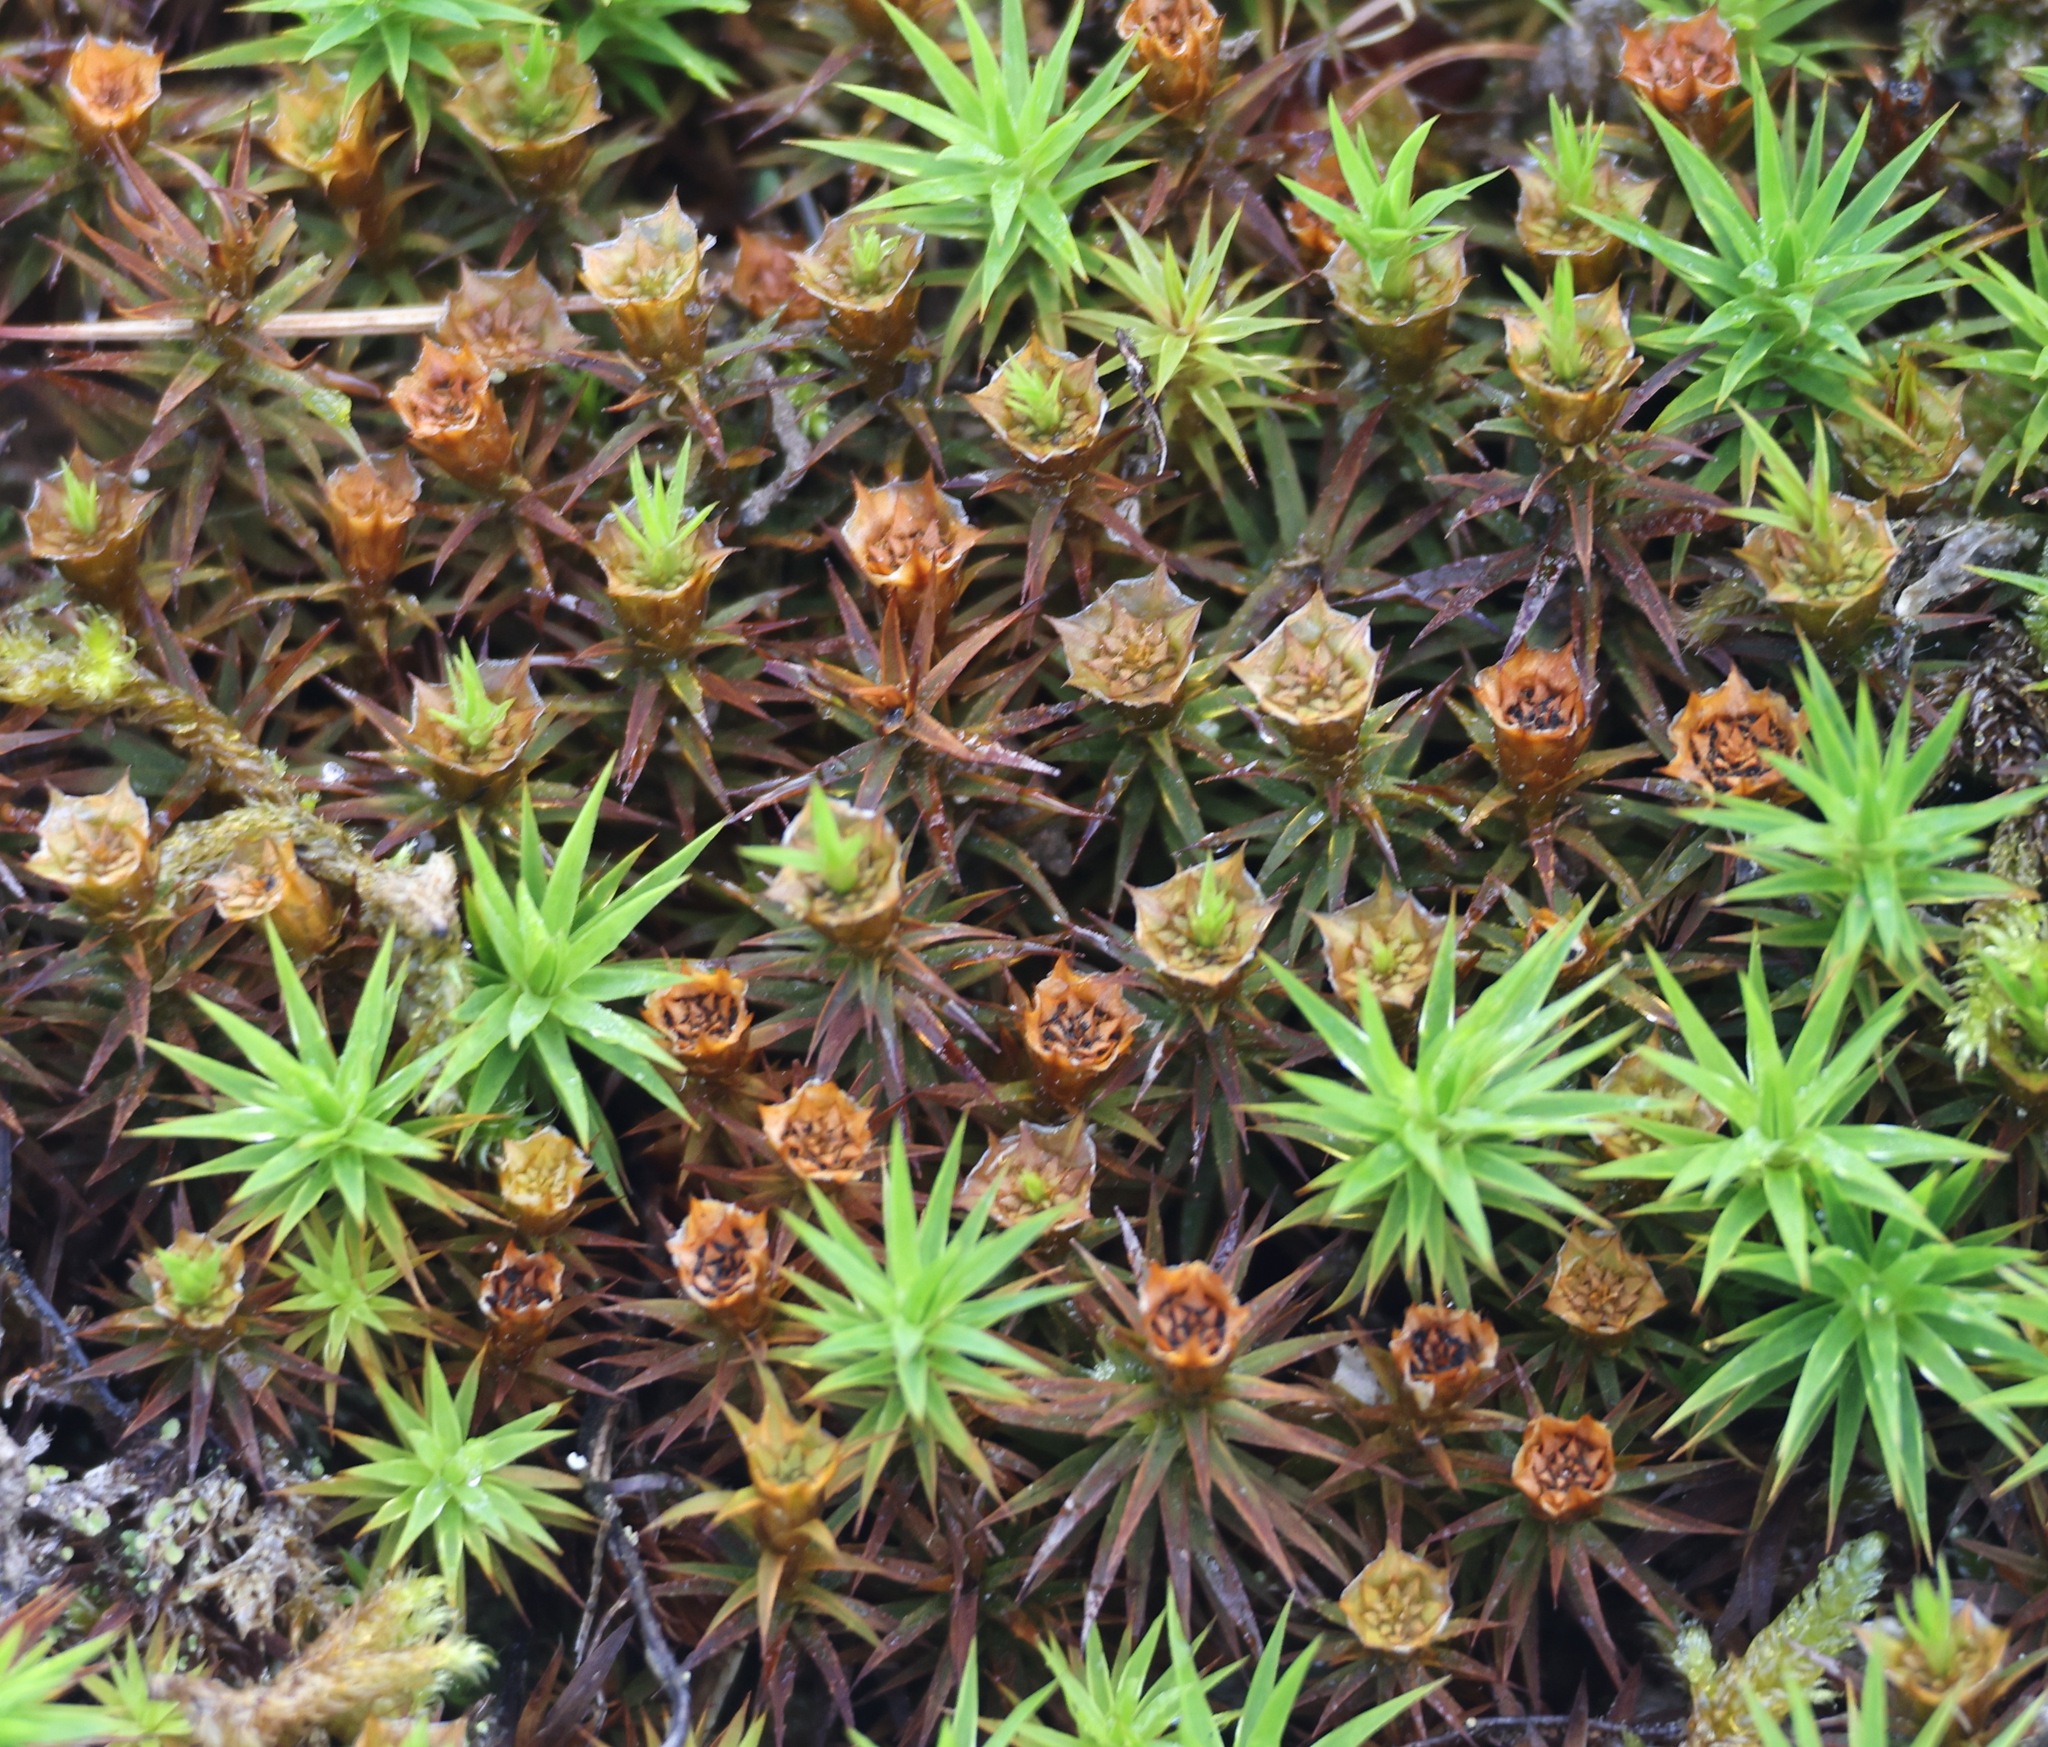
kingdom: Plantae
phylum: Bryophyta
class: Polytrichopsida
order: Polytrichales
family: Polytrichaceae
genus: Polytrichum
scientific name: Polytrichum formosum
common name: Bank haircap moss
